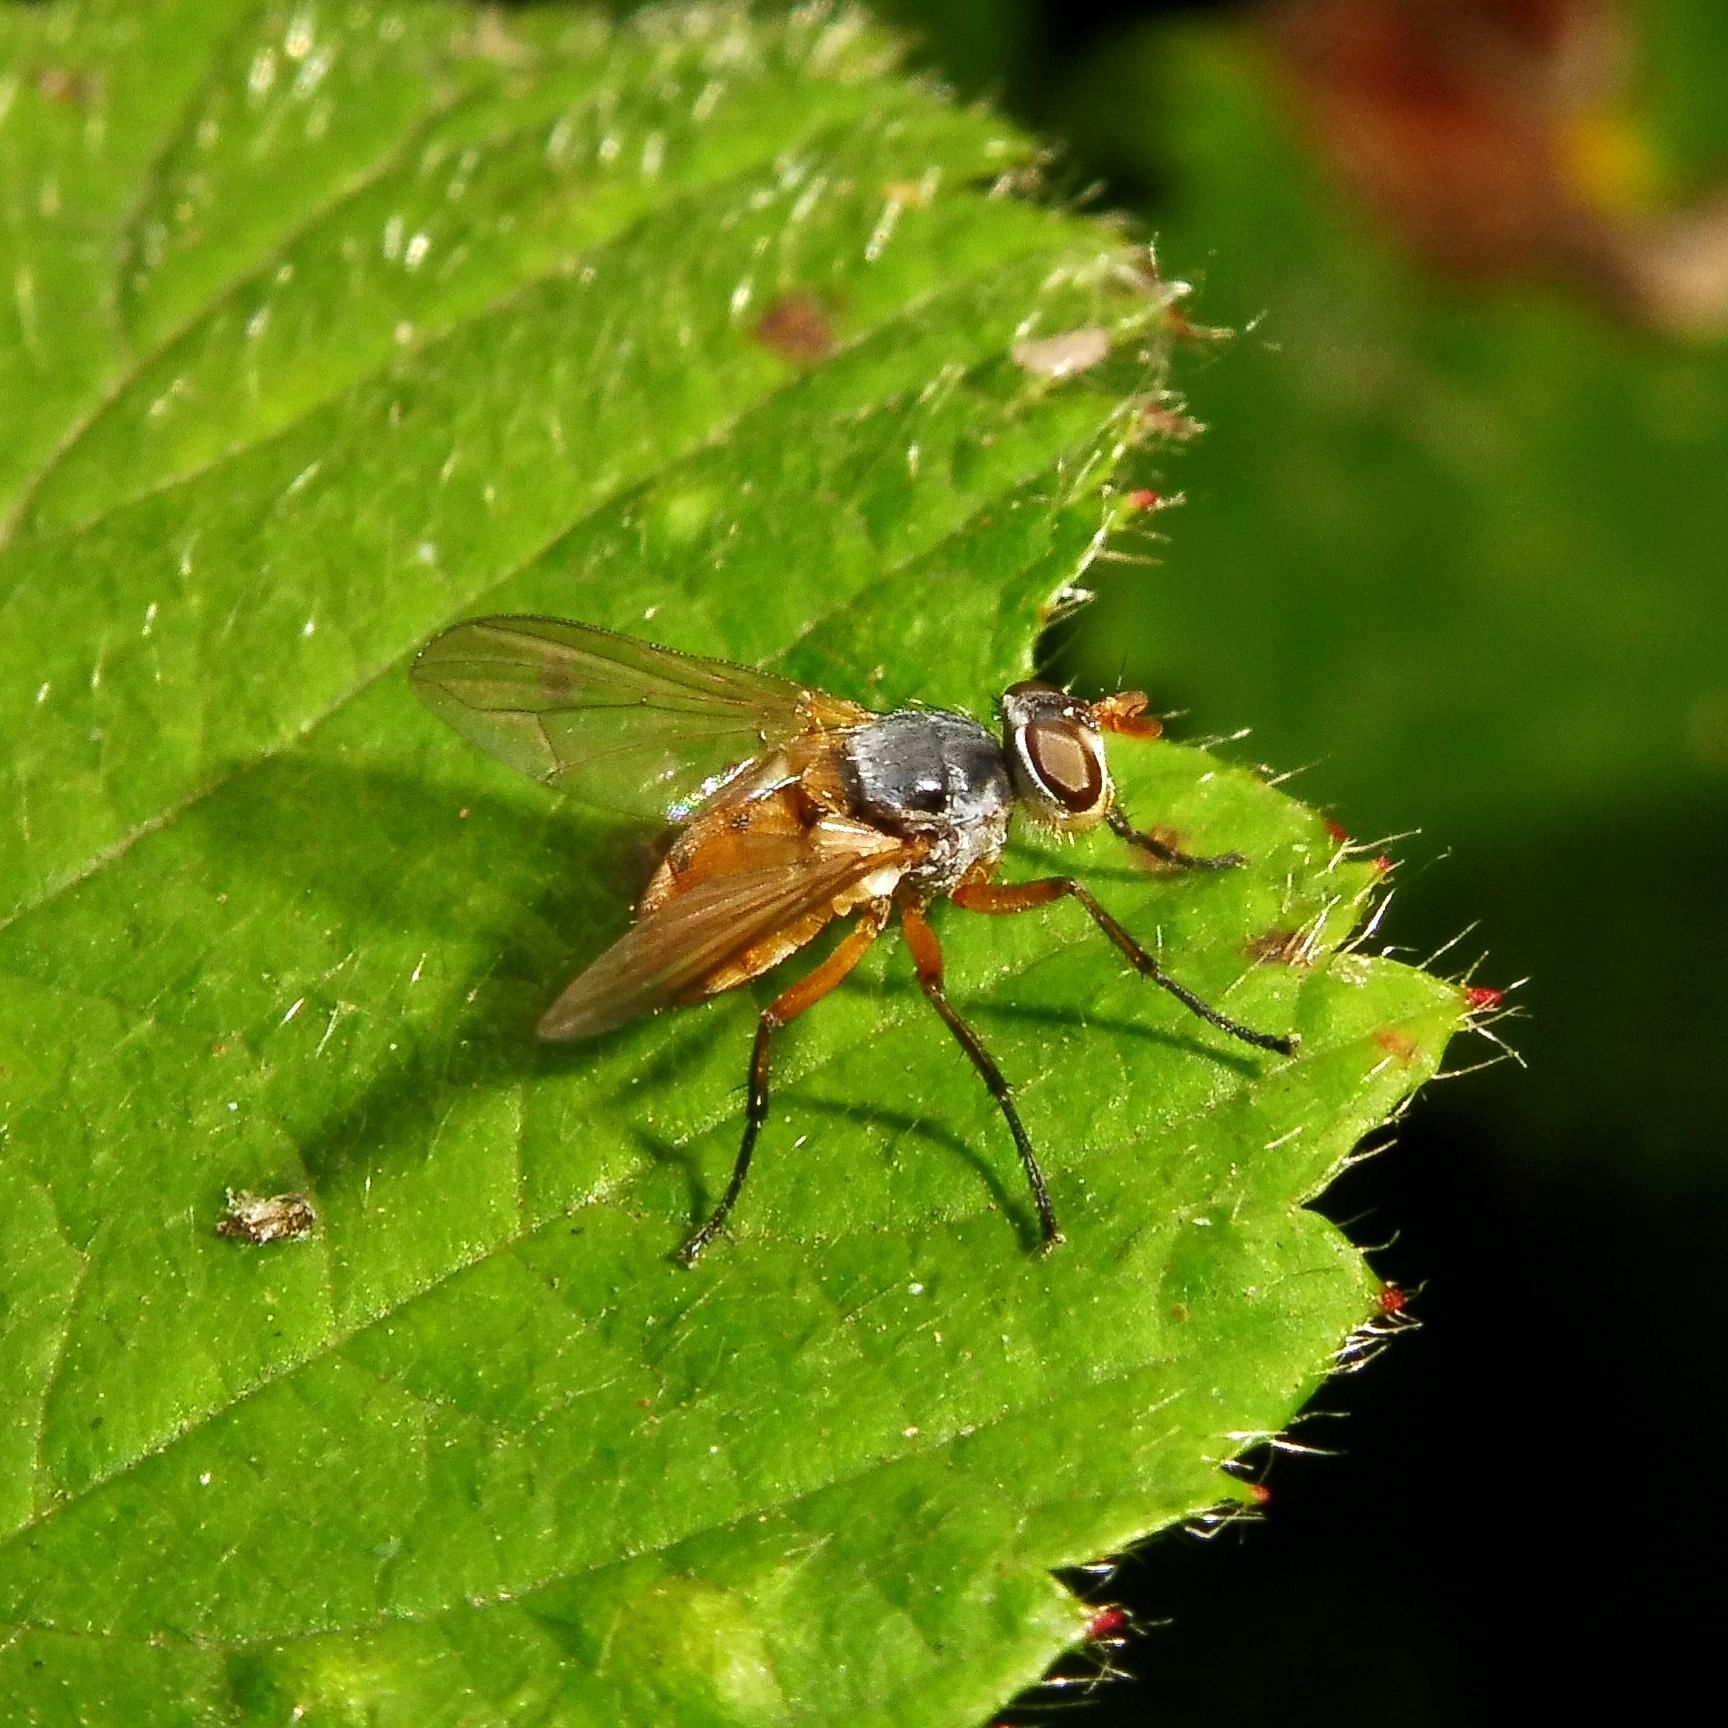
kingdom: Animalia
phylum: Arthropoda
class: Insecta
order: Diptera
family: Tachinidae
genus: Subclytia
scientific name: Subclytia rotundiventris
